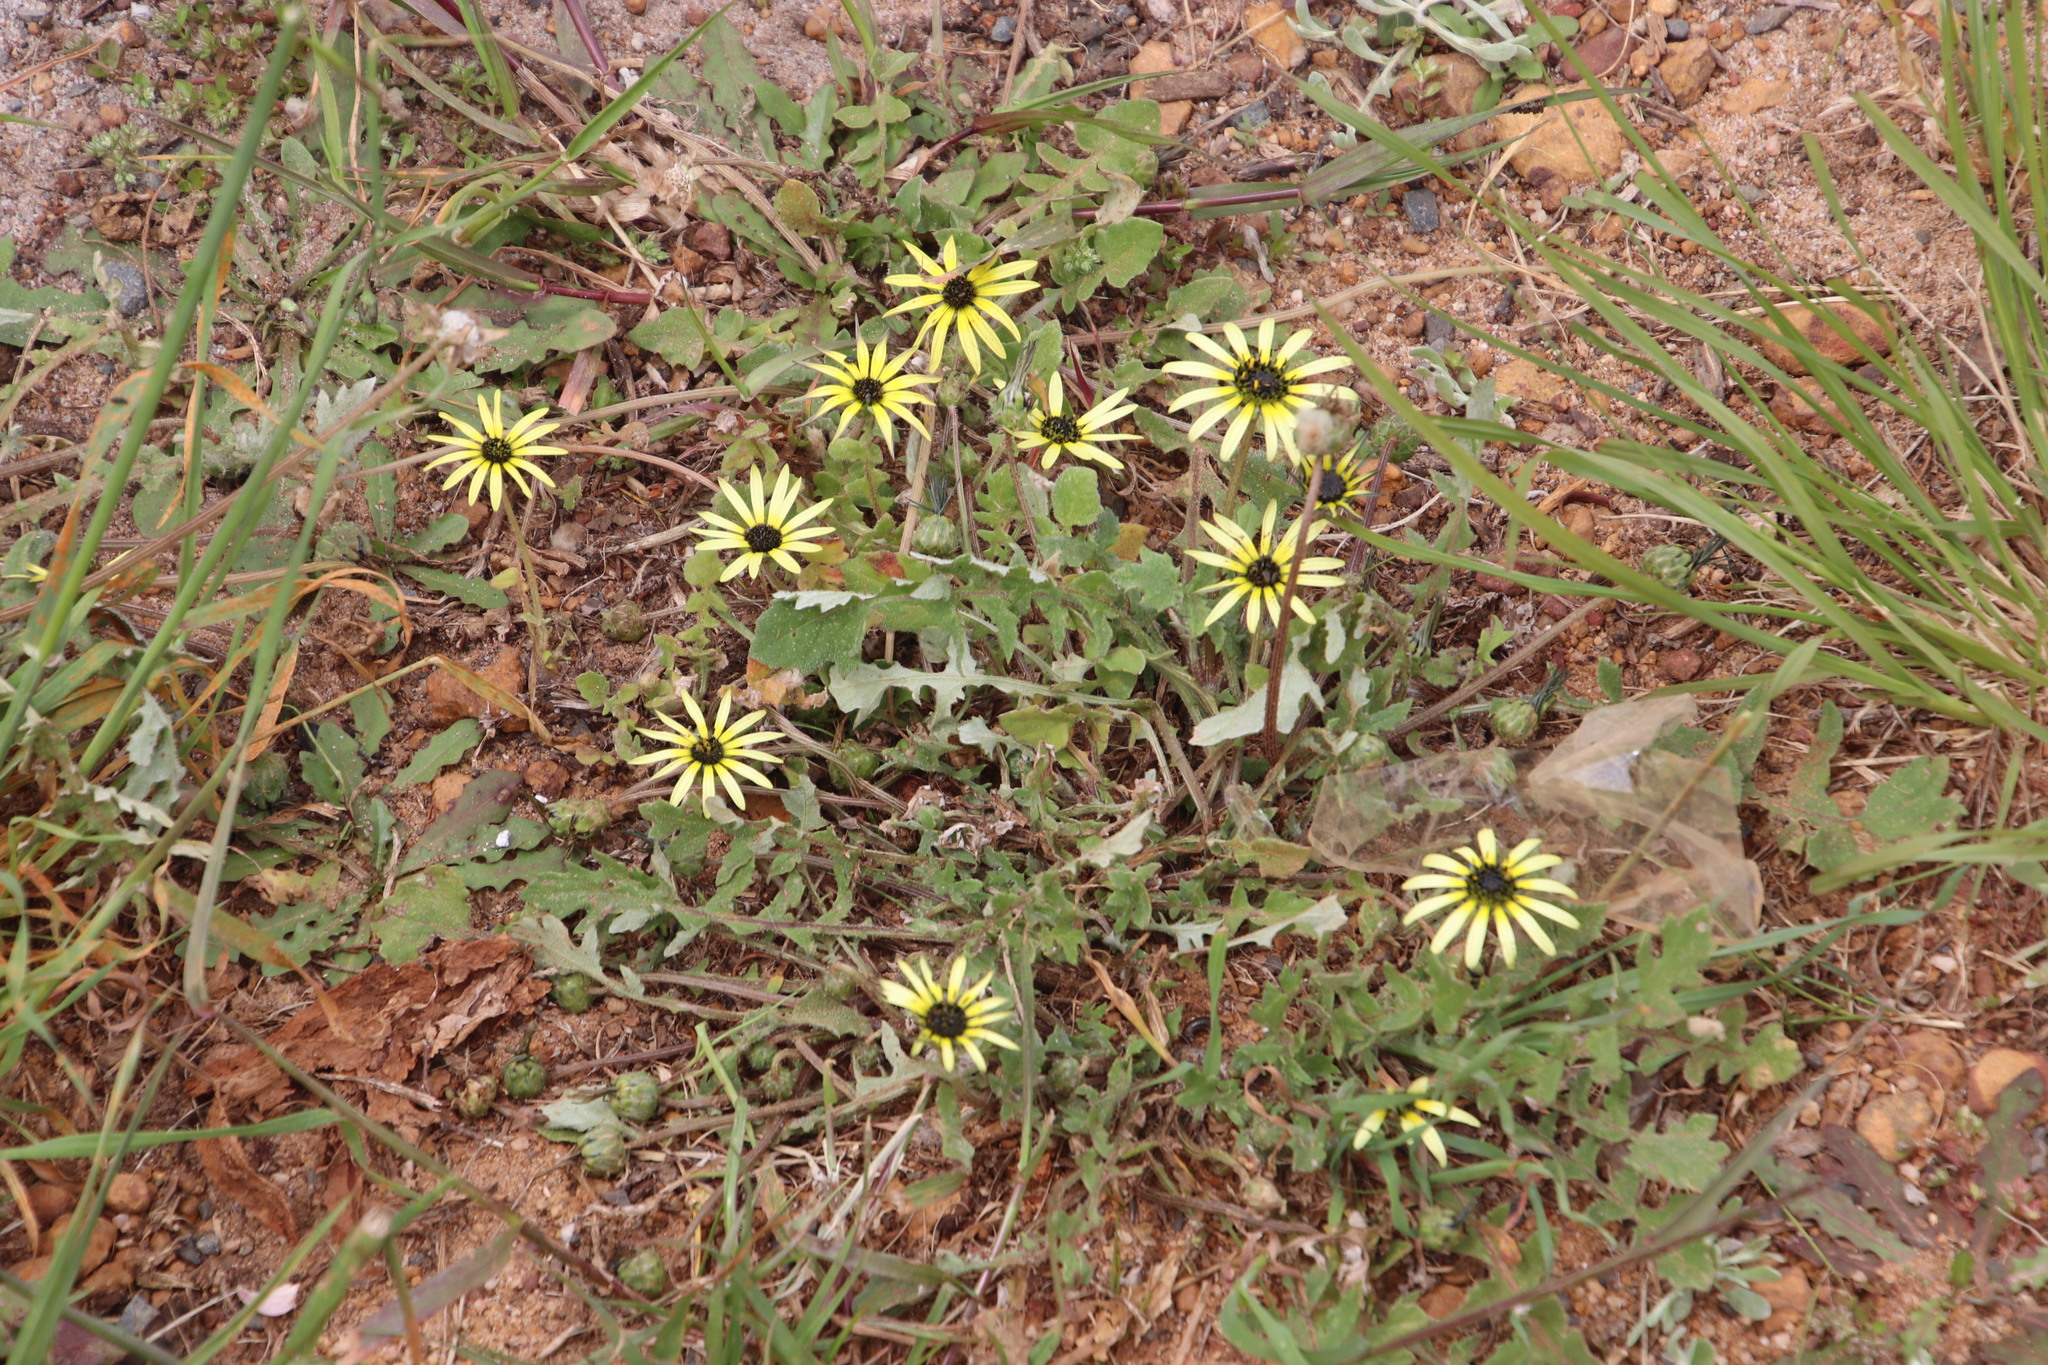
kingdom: Plantae
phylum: Tracheophyta
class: Magnoliopsida
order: Asterales
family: Asteraceae
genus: Arctotheca
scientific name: Arctotheca calendula
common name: Capeweed
